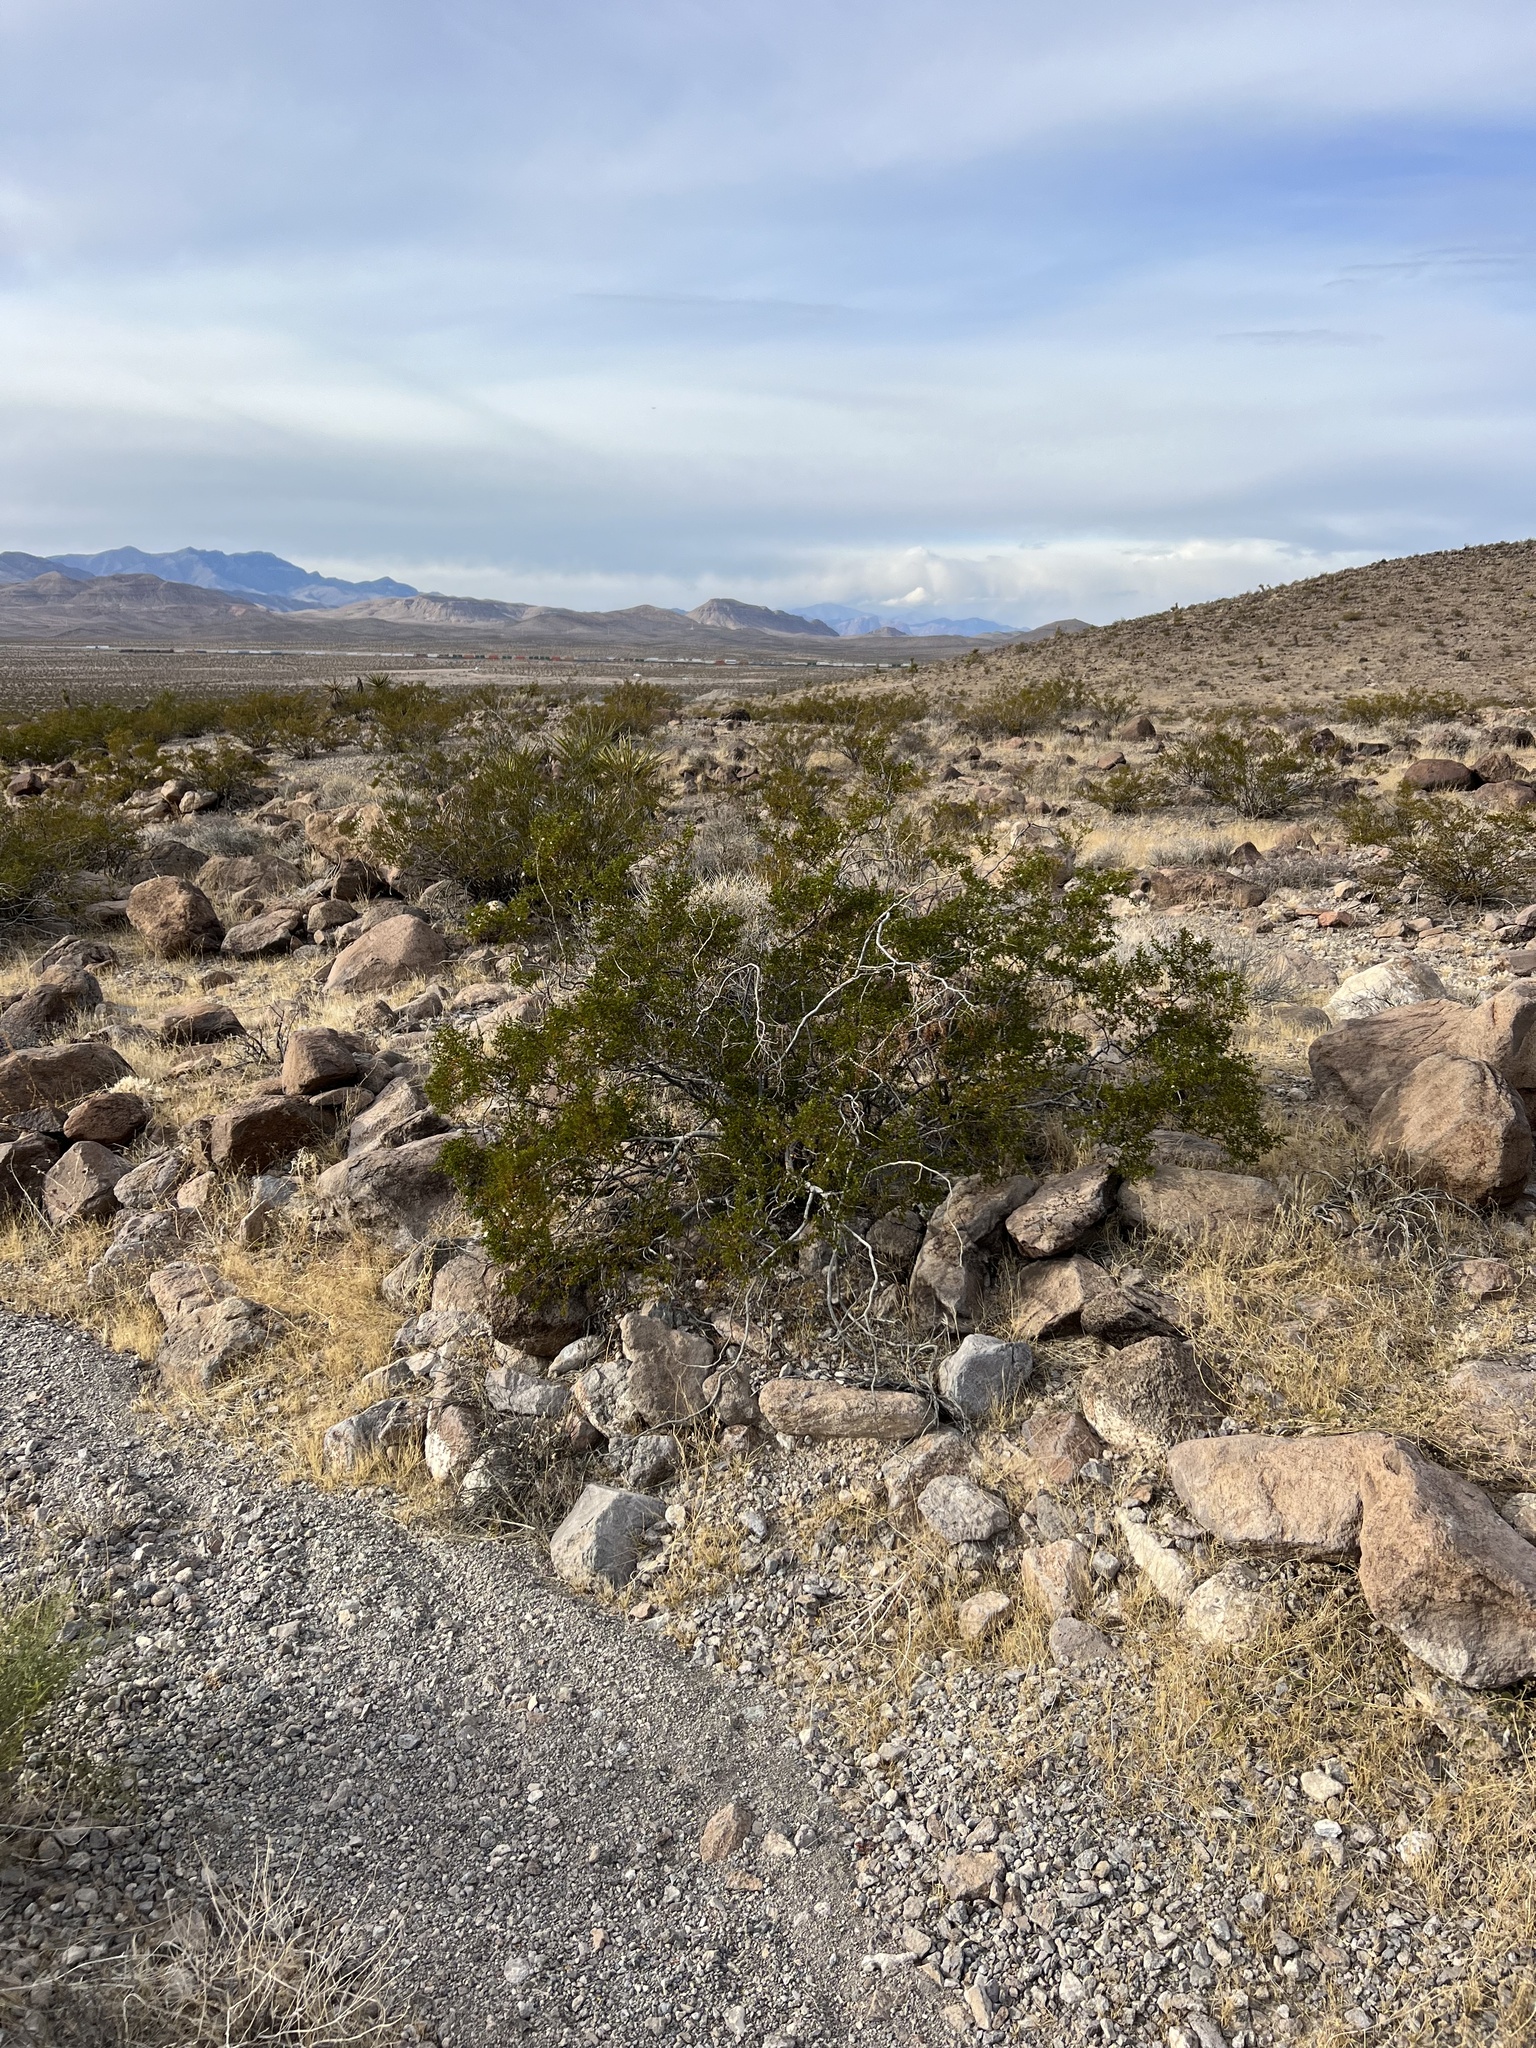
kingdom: Plantae
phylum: Tracheophyta
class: Magnoliopsida
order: Zygophyllales
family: Zygophyllaceae
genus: Larrea
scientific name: Larrea tridentata
